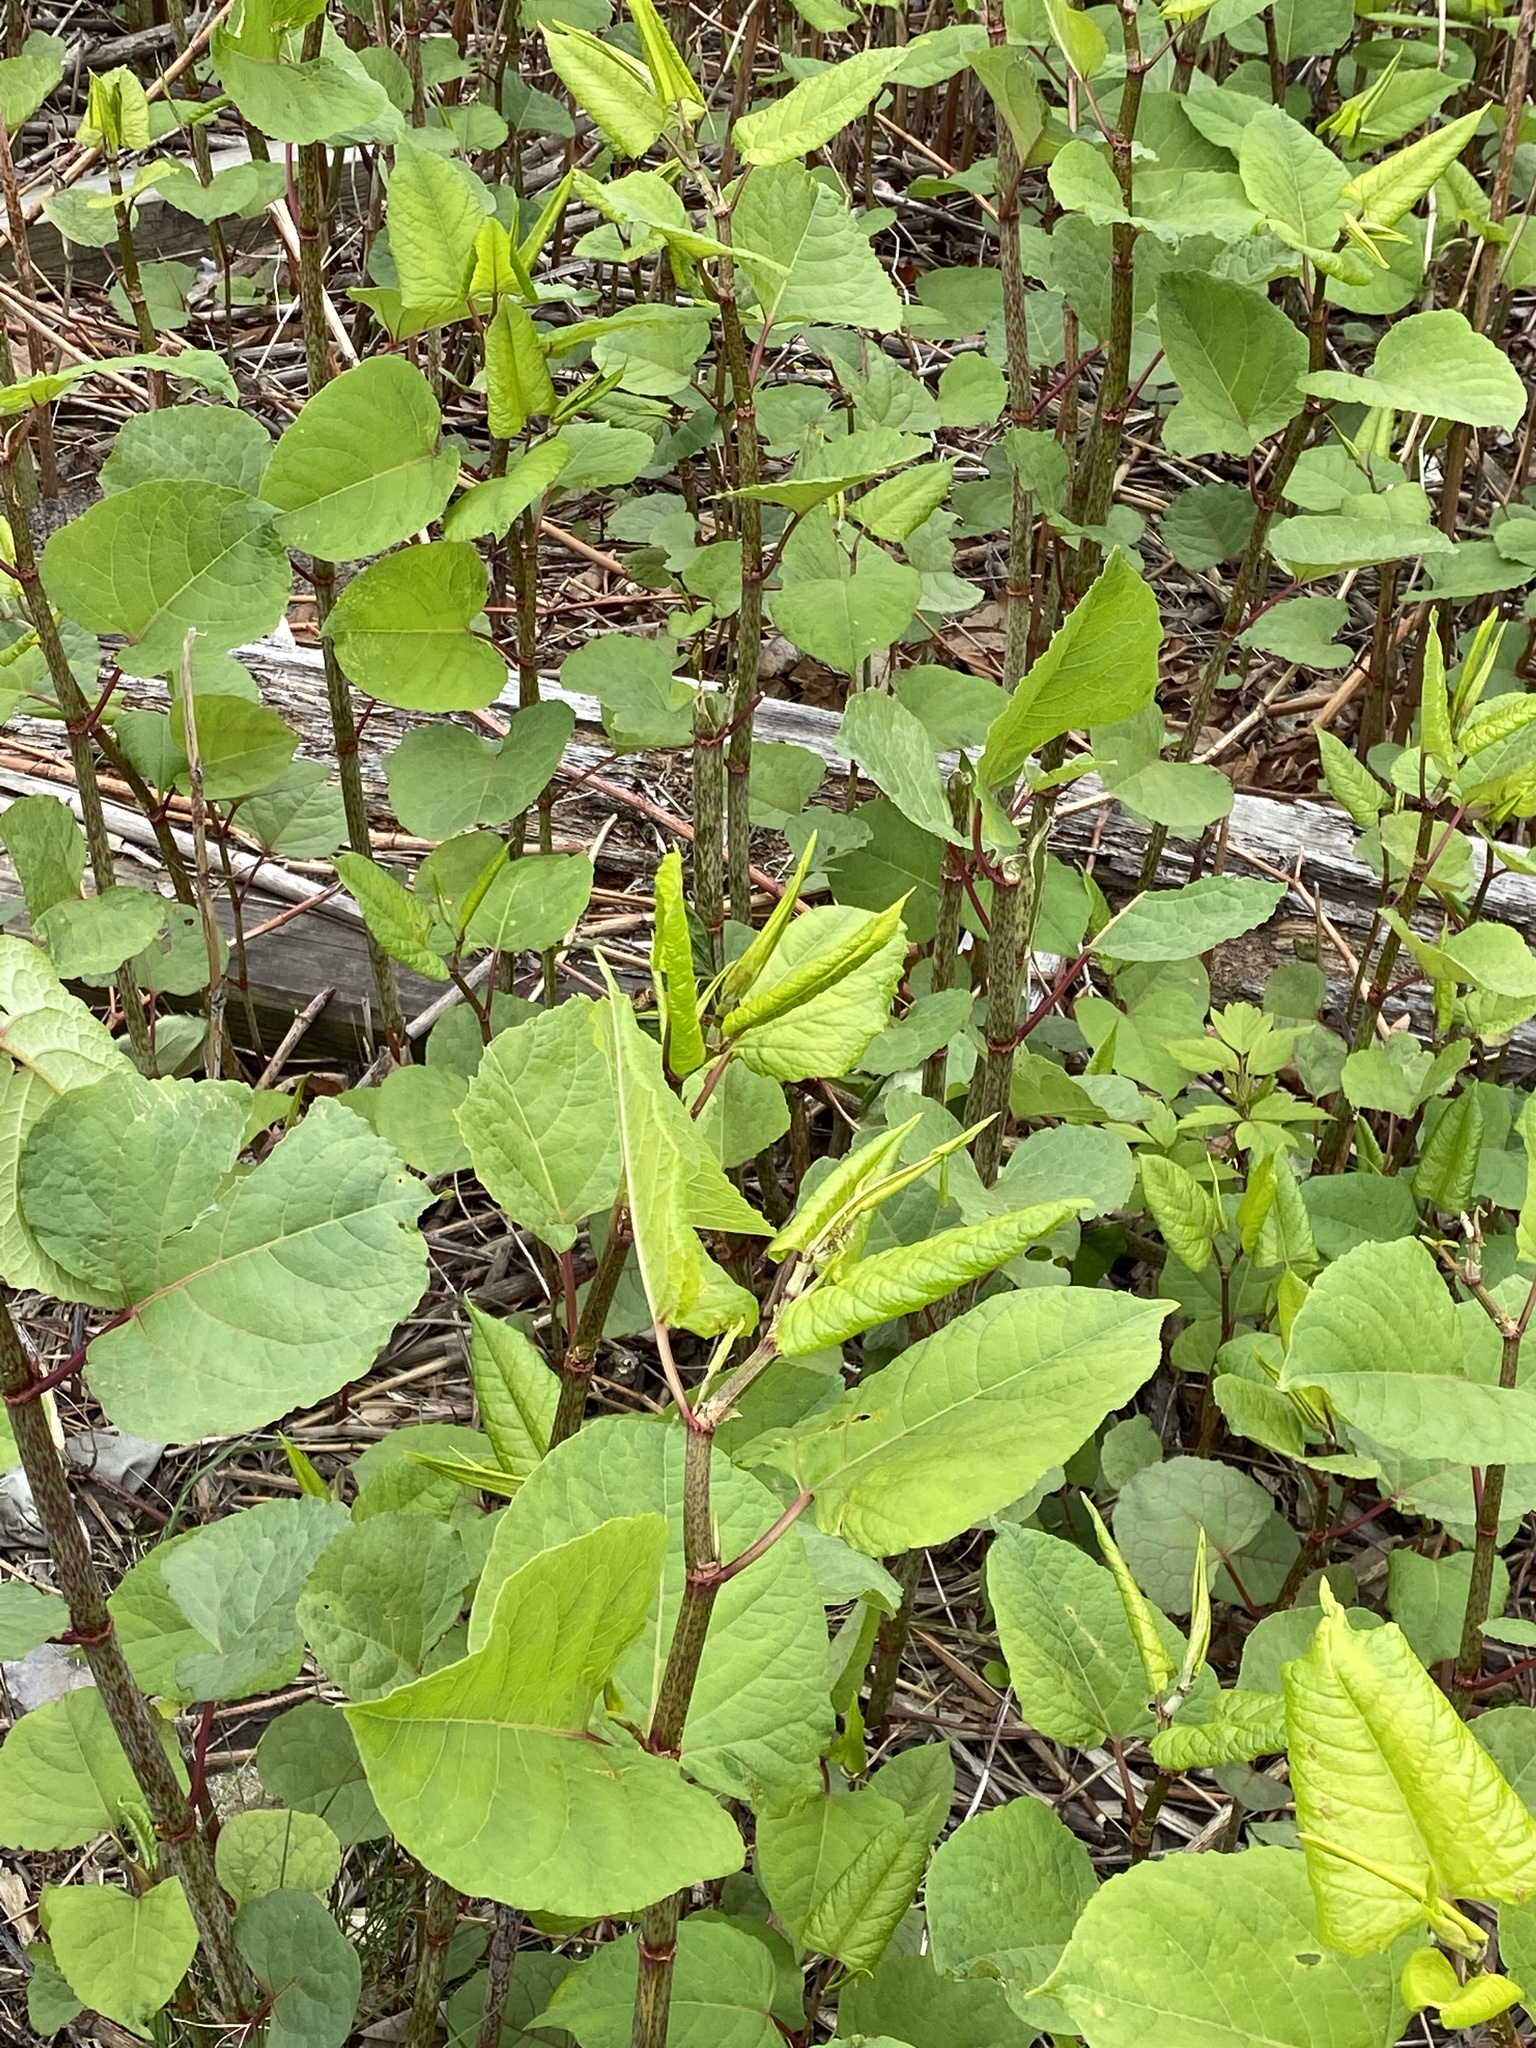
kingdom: Plantae
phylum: Tracheophyta
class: Magnoliopsida
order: Caryophyllales
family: Polygonaceae
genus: Reynoutria
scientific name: Reynoutria japonica
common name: Japanese knotweed
